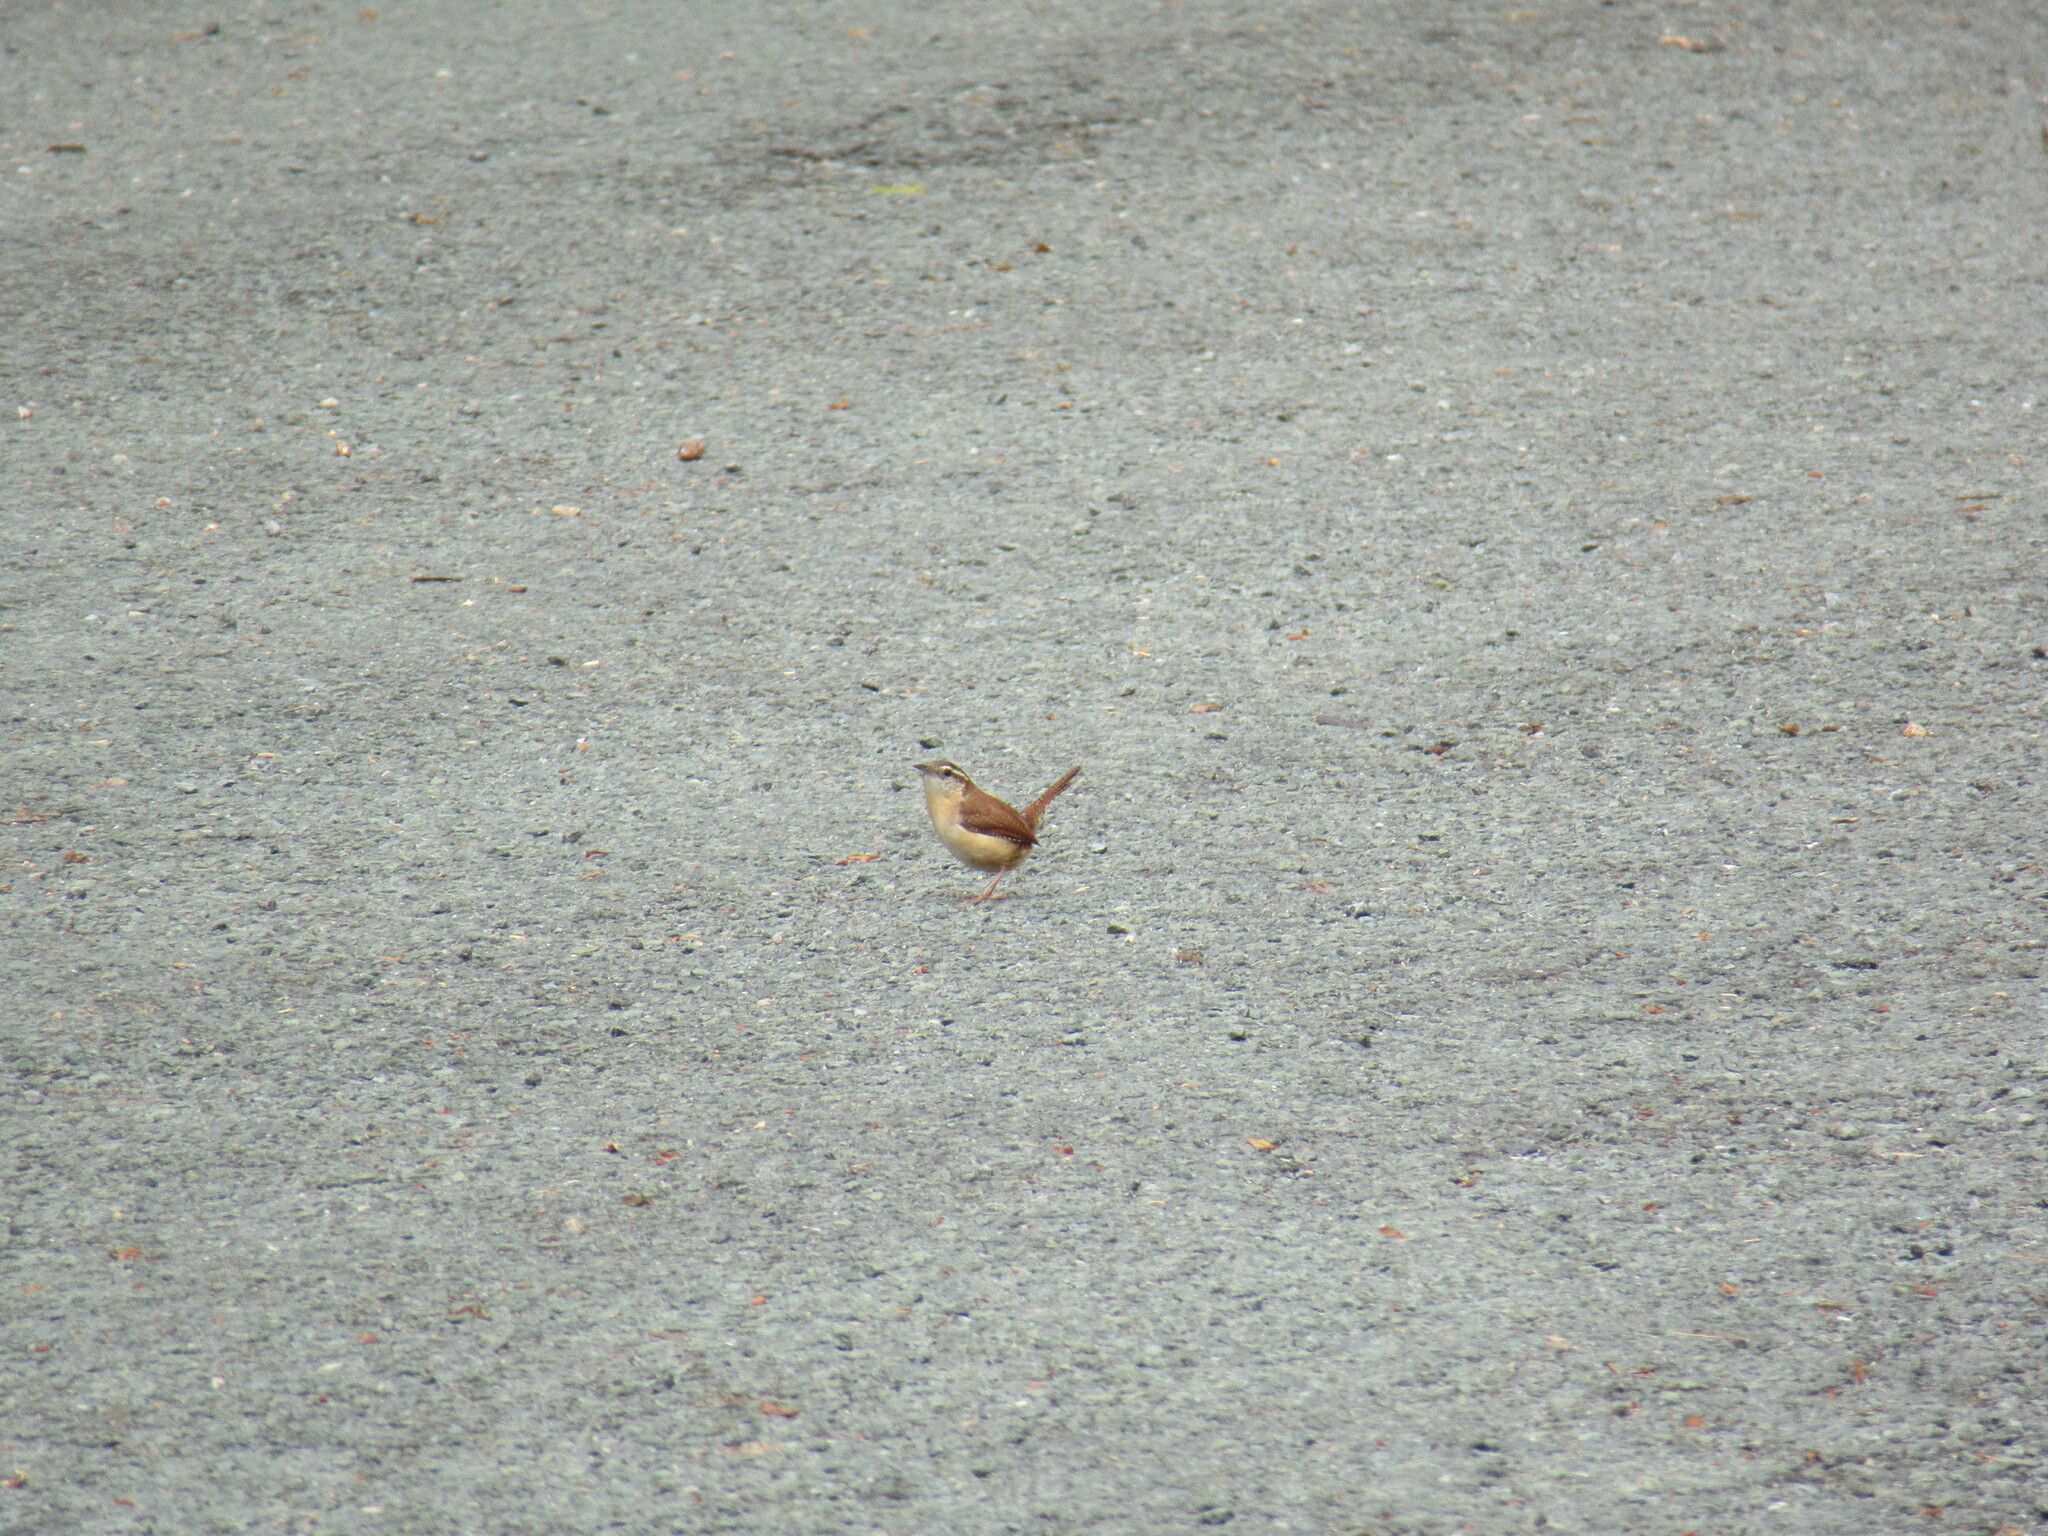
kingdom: Animalia
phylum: Chordata
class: Aves
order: Passeriformes
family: Troglodytidae
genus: Thryothorus
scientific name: Thryothorus ludovicianus
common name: Carolina wren
